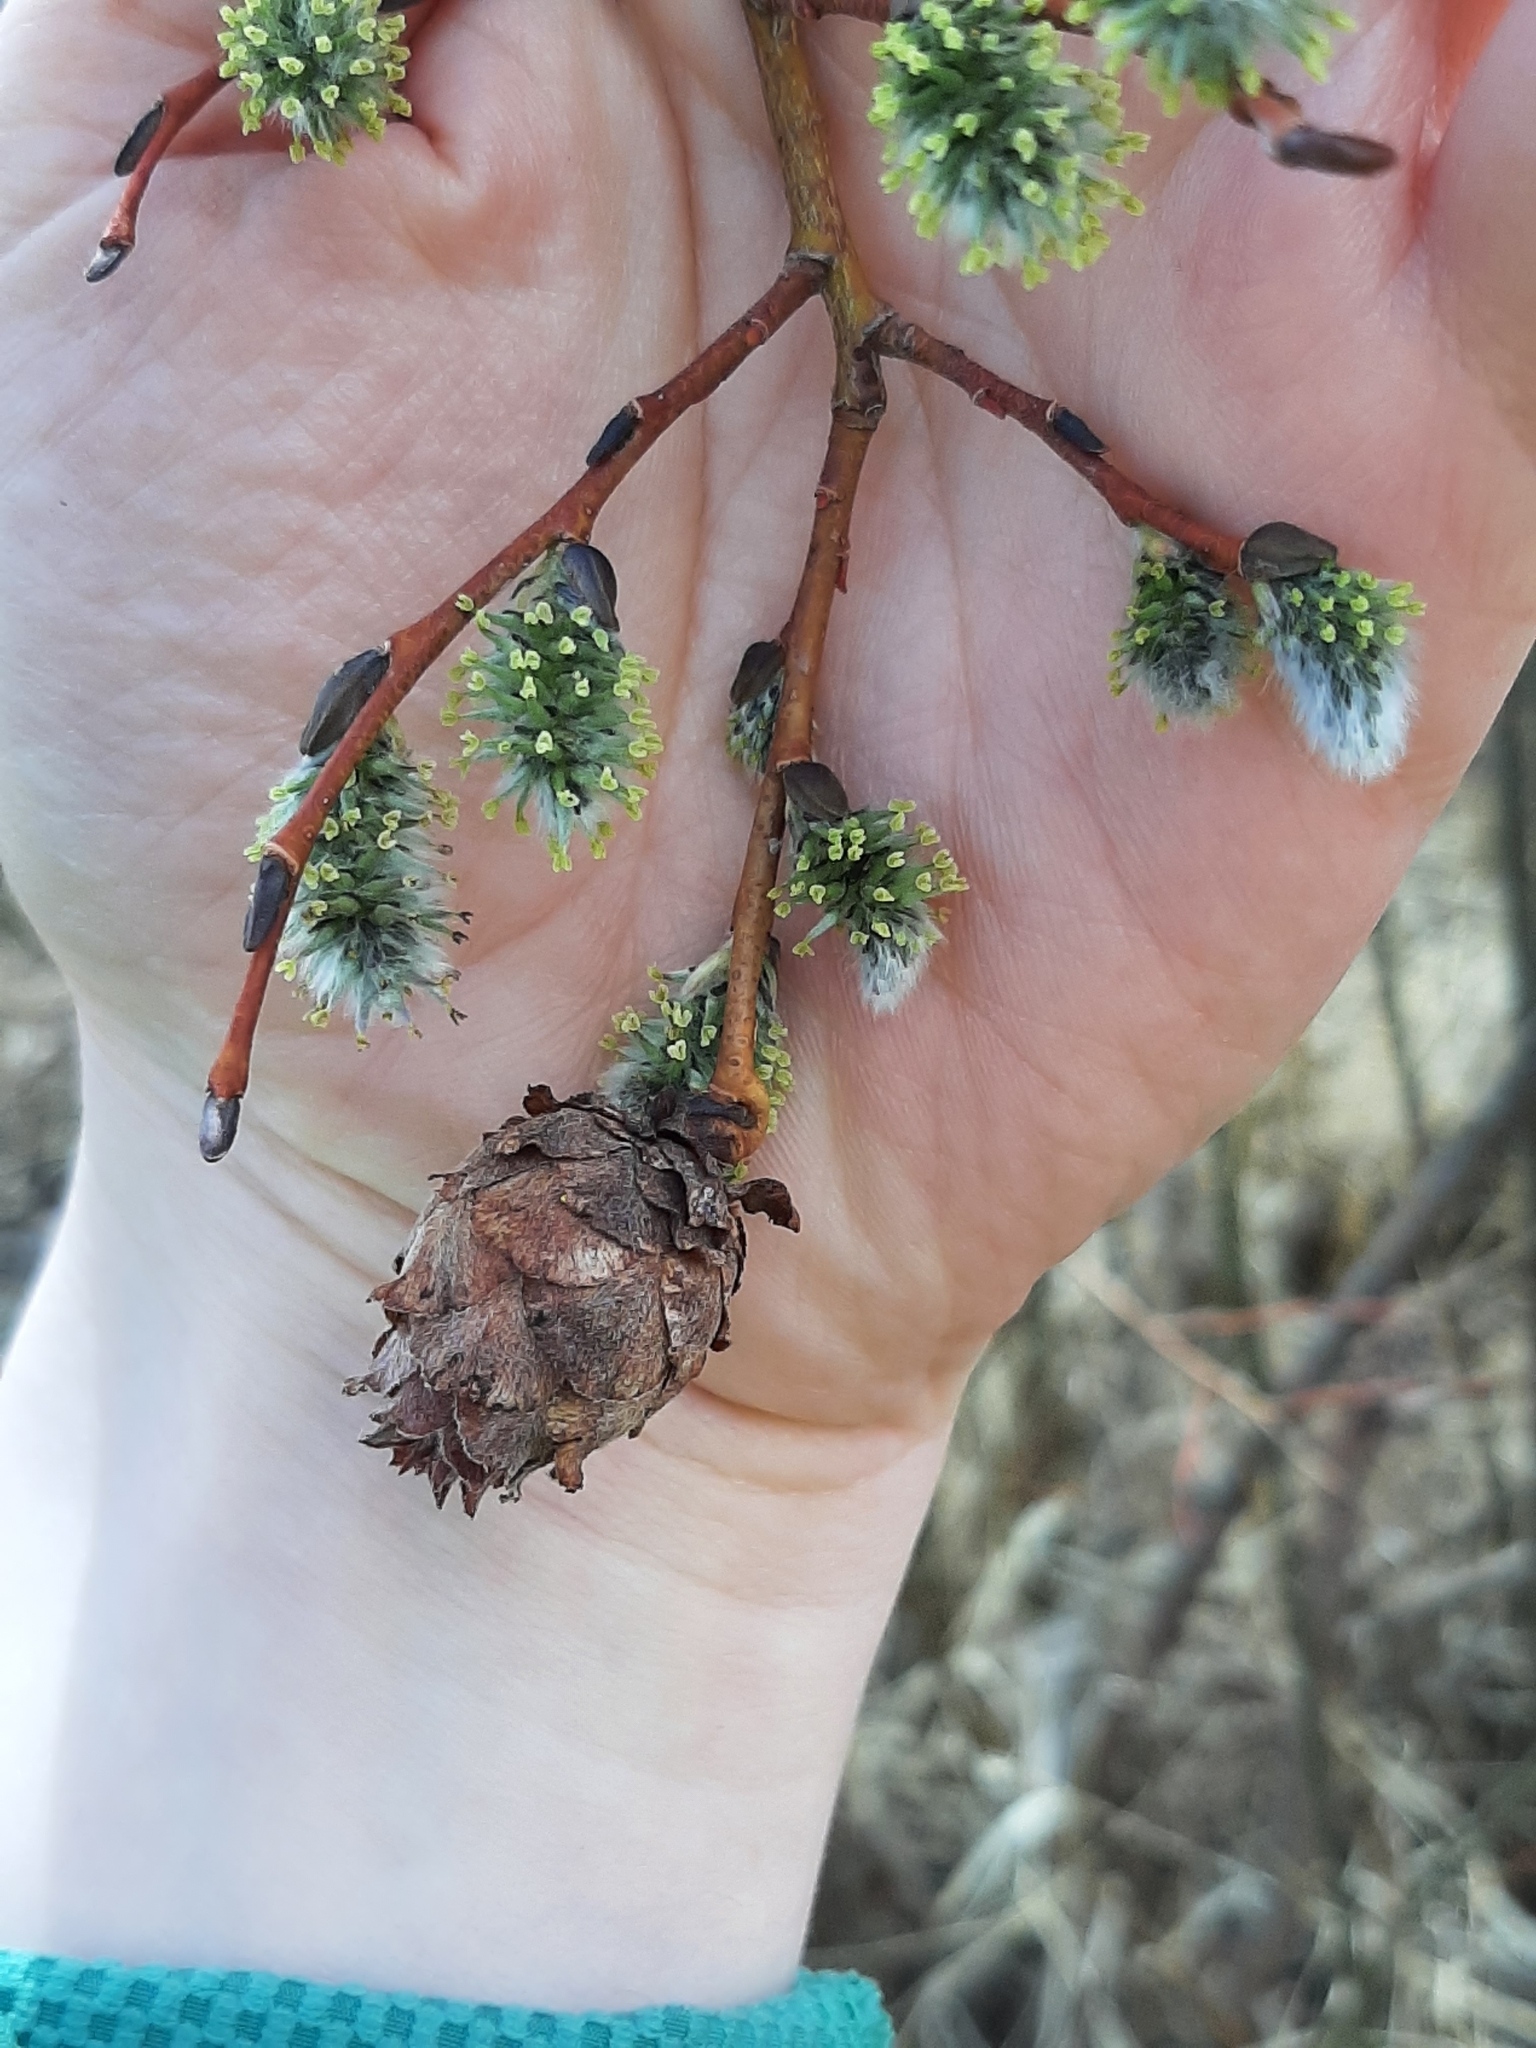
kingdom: Animalia
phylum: Arthropoda
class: Insecta
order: Diptera
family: Cecidomyiidae
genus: Rabdophaga
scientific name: Rabdophaga strobiloides
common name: Willow pinecone gall midge
